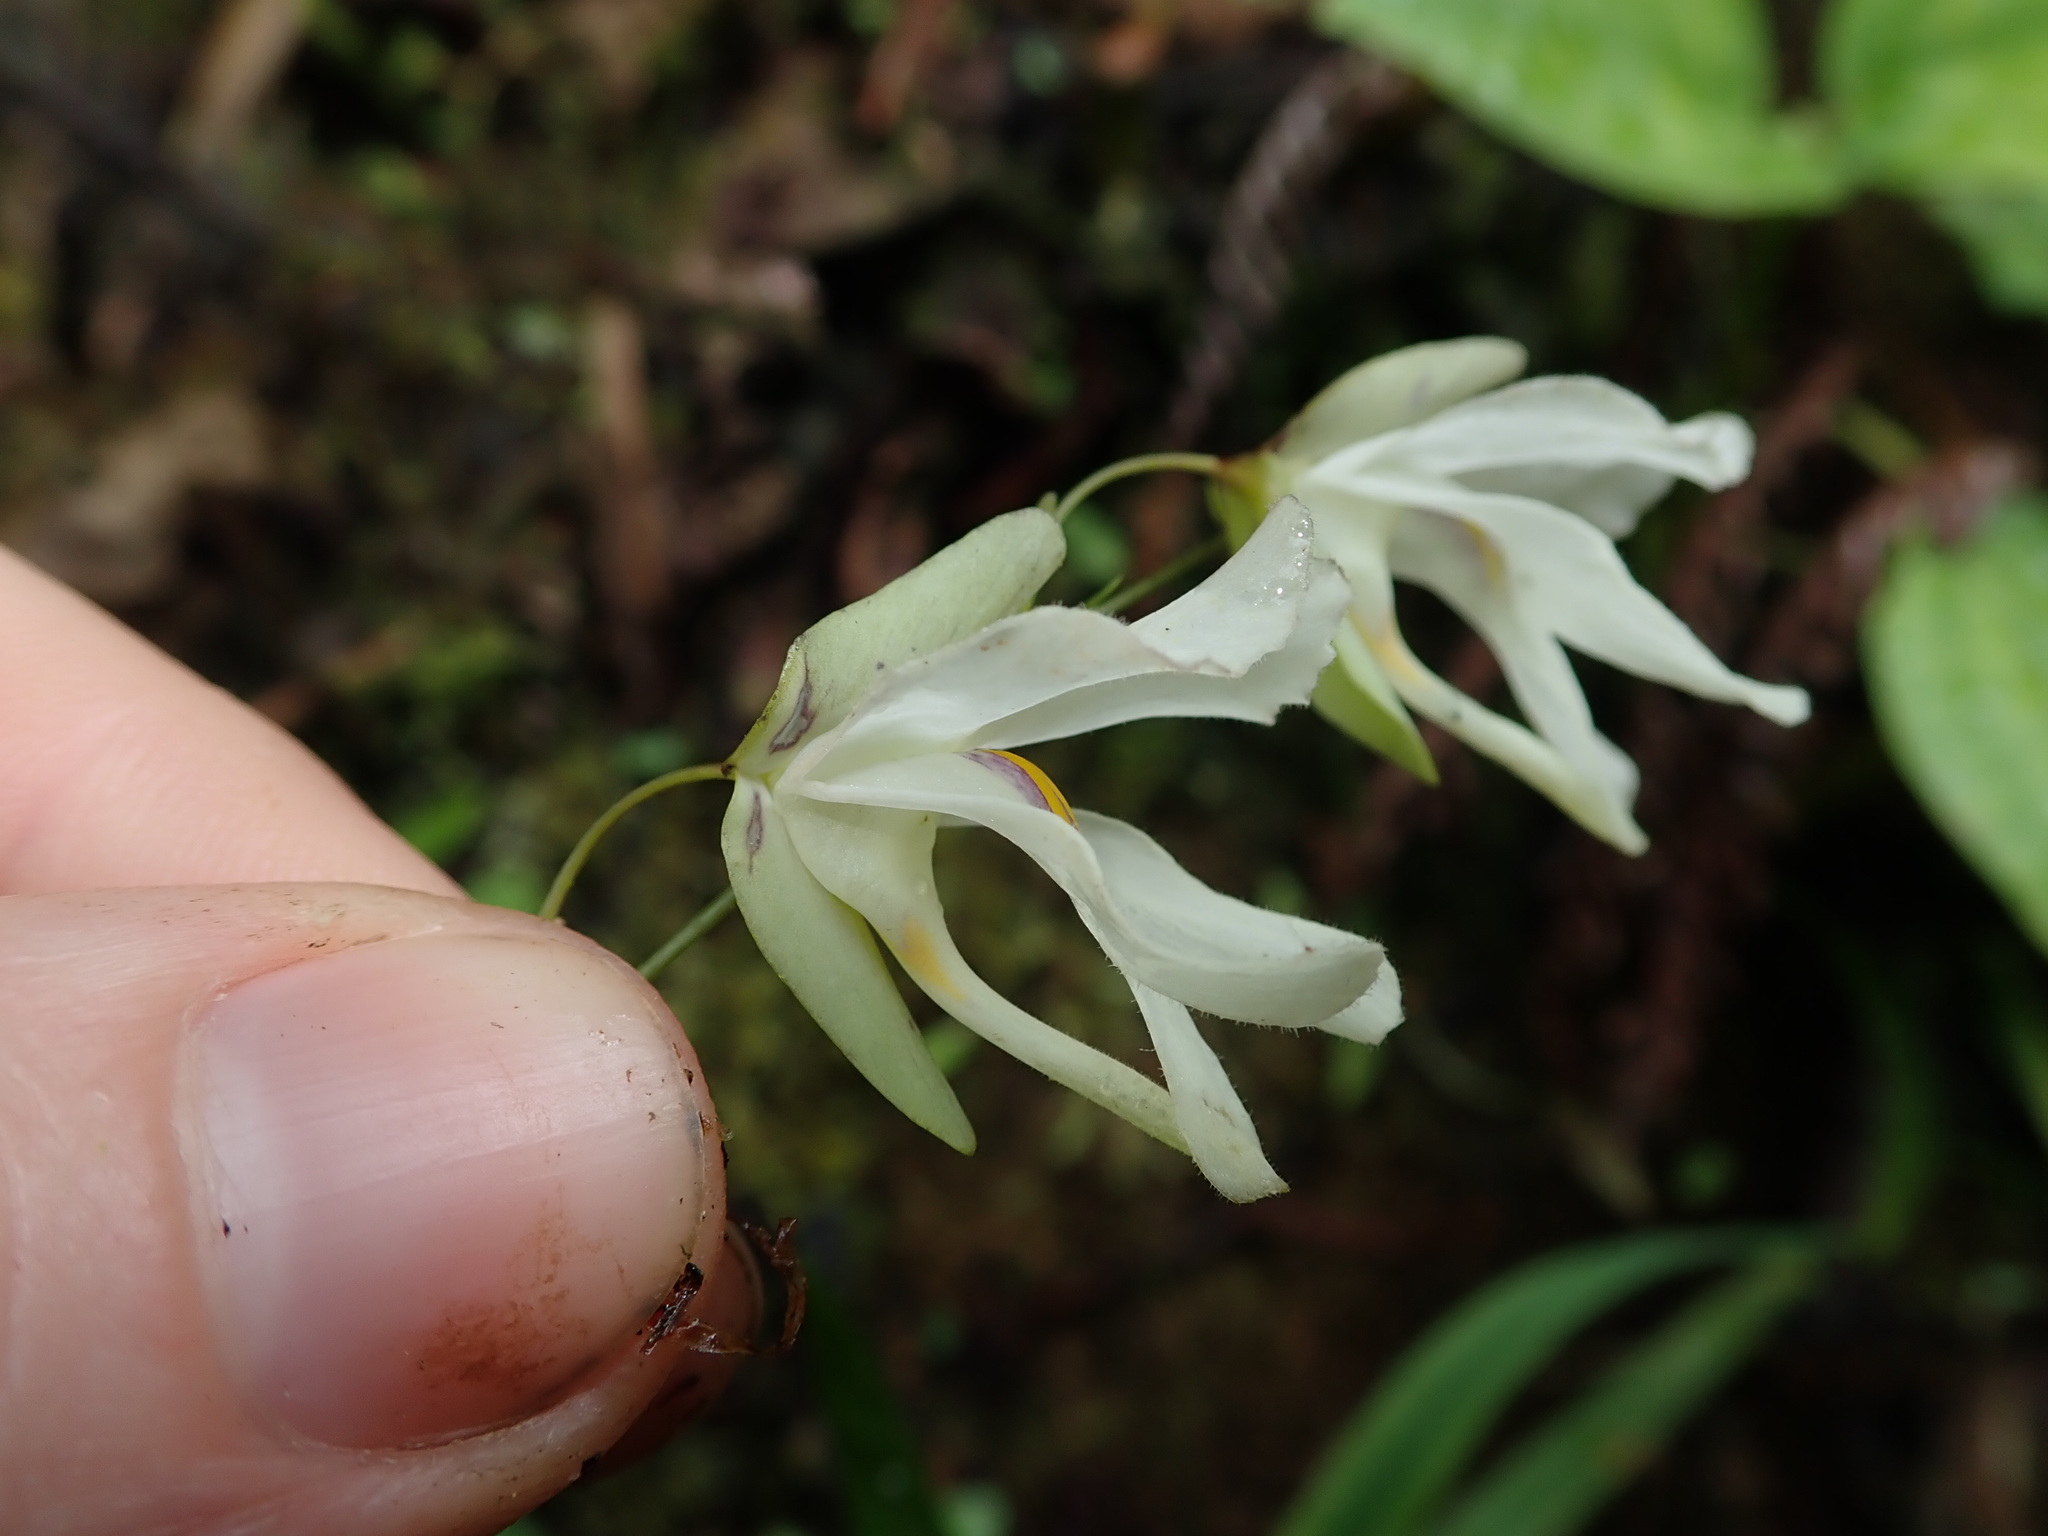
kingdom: Plantae
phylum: Tracheophyta
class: Magnoliopsida
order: Lamiales
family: Lentibulariaceae
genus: Utricularia
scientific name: Utricularia asplundii
